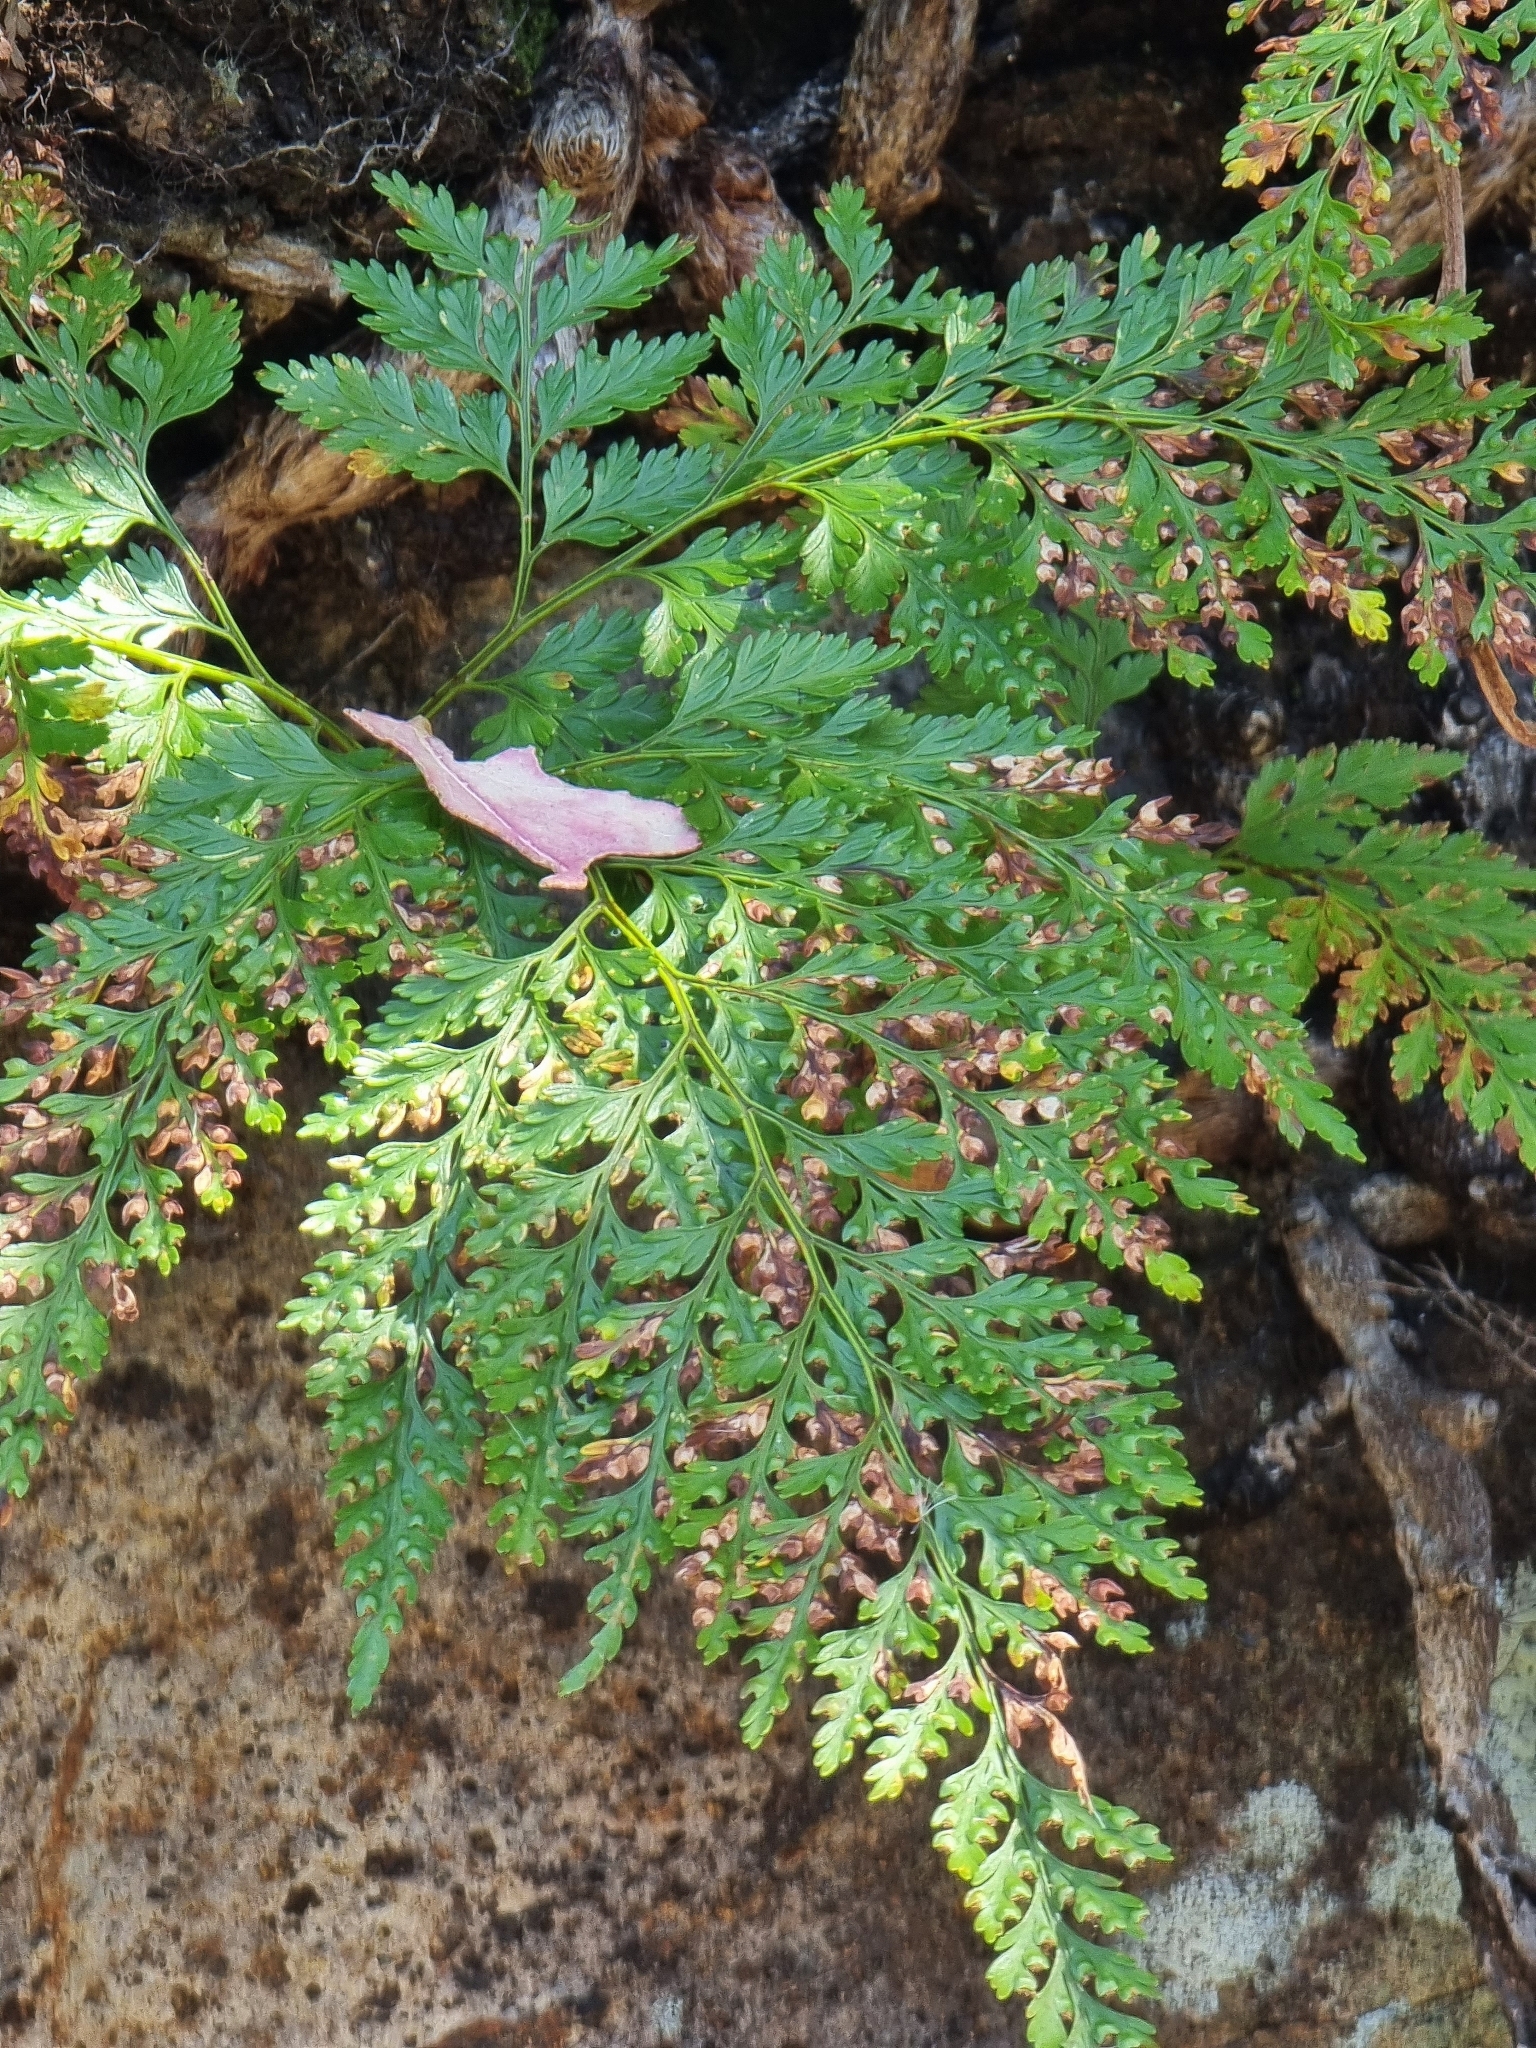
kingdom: Plantae
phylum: Tracheophyta
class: Polypodiopsida
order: Polypodiales
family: Davalliaceae
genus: Davallia
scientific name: Davallia canariensis
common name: Hare's-foot fern
